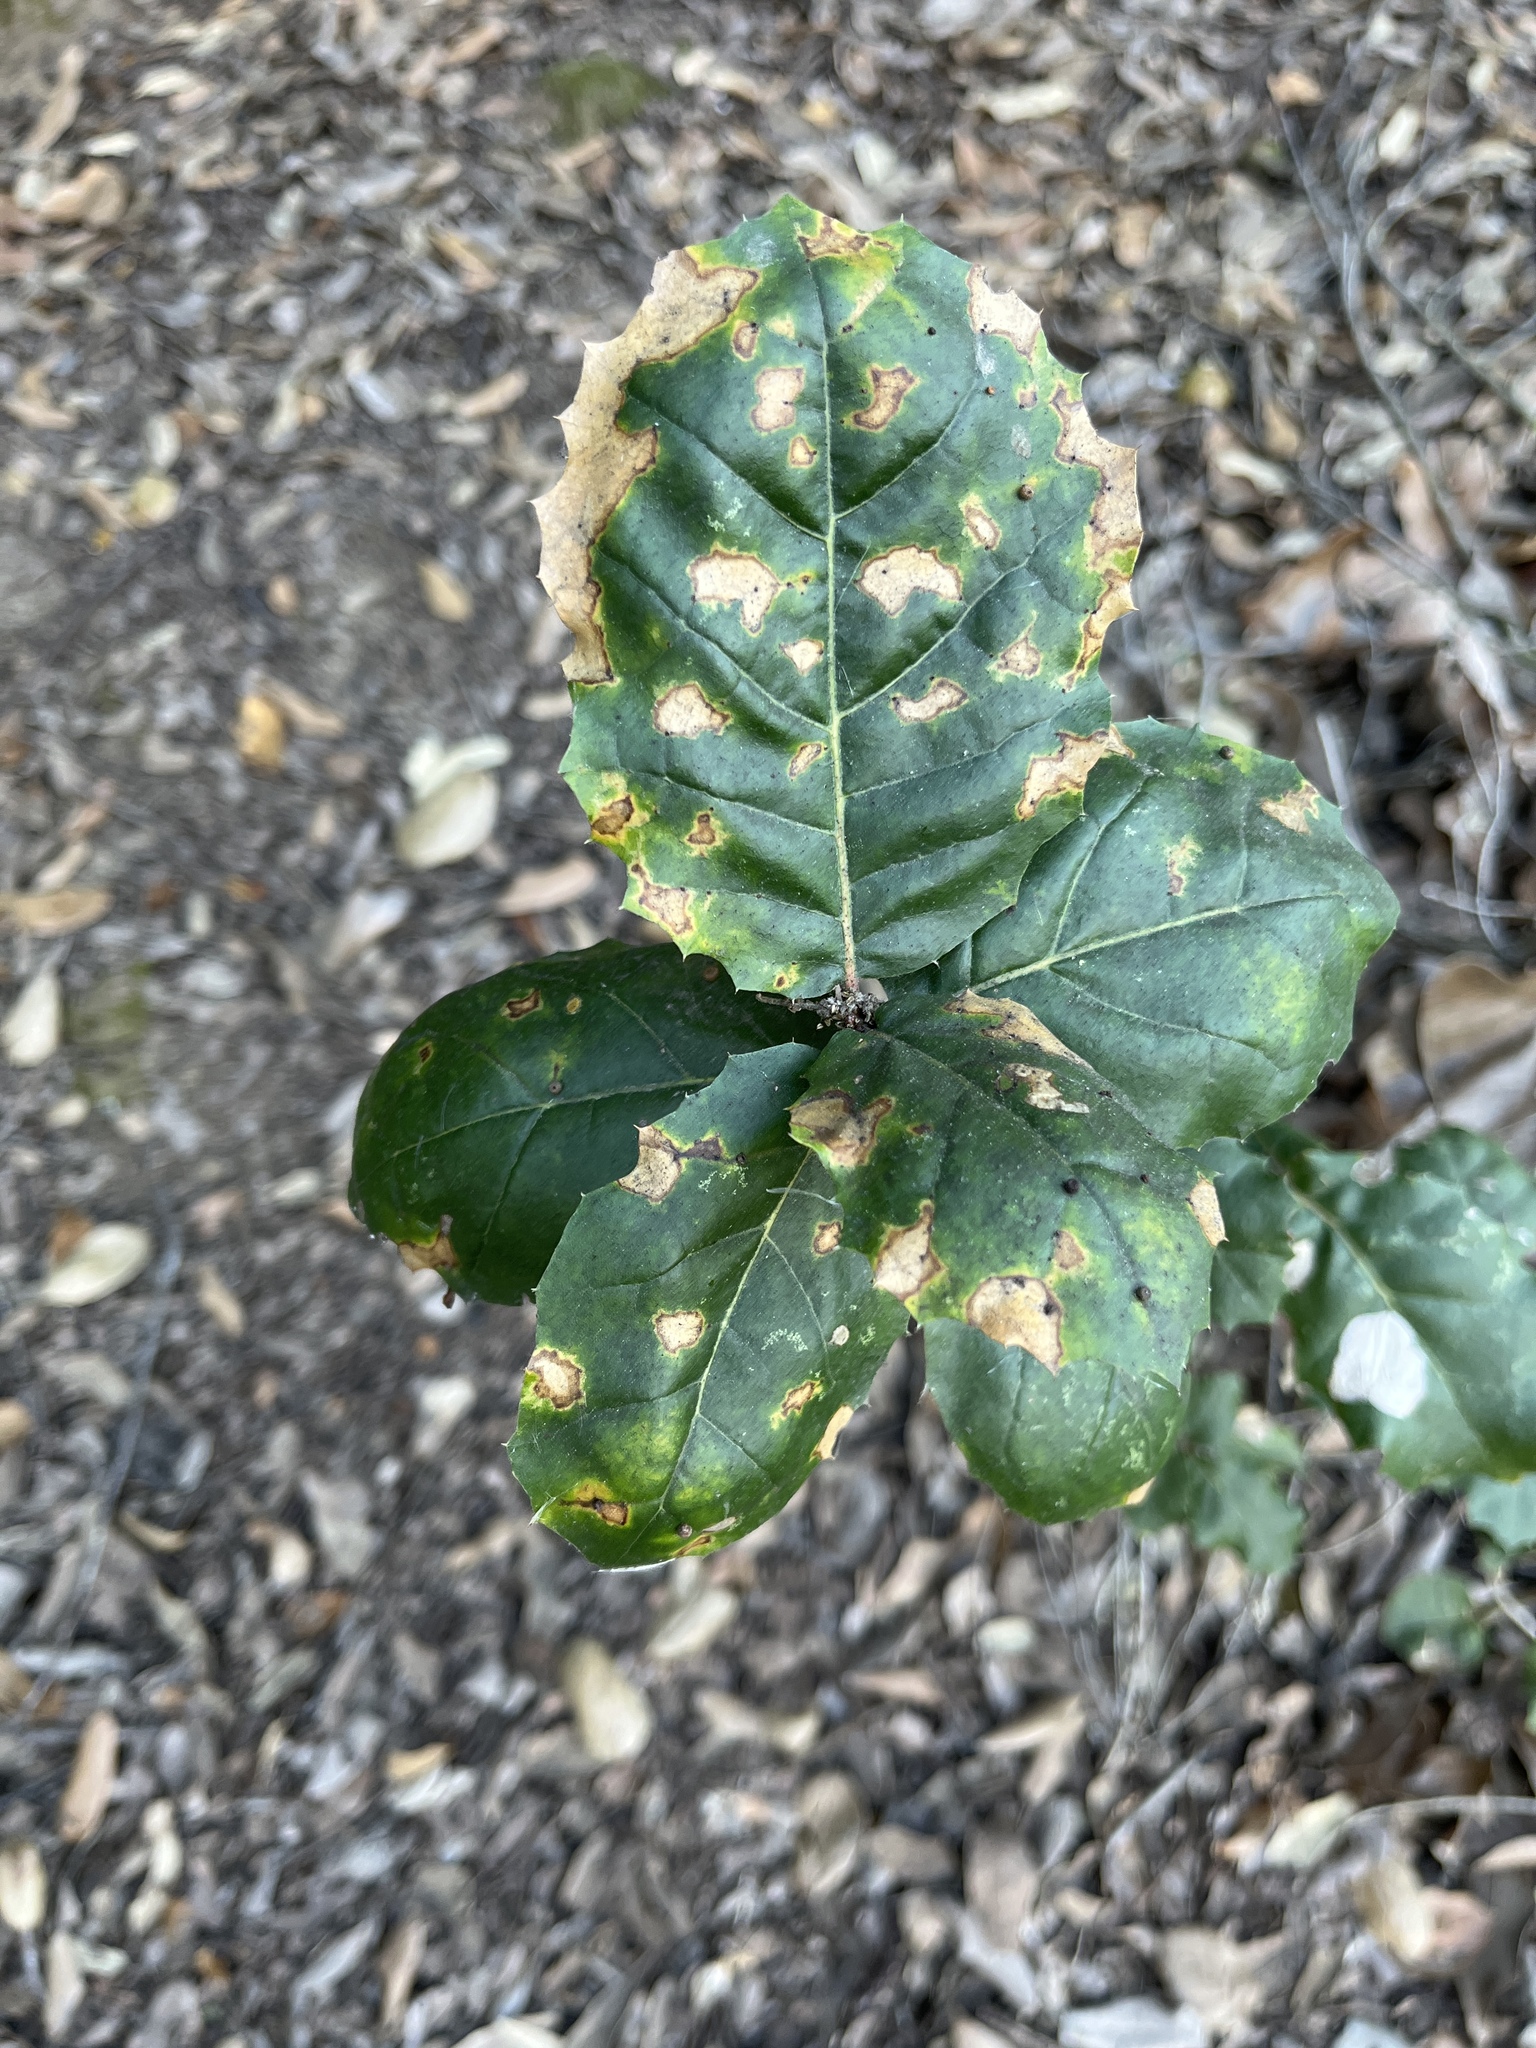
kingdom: Plantae
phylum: Tracheophyta
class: Magnoliopsida
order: Fagales
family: Fagaceae
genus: Quercus
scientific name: Quercus agrifolia
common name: California live oak
